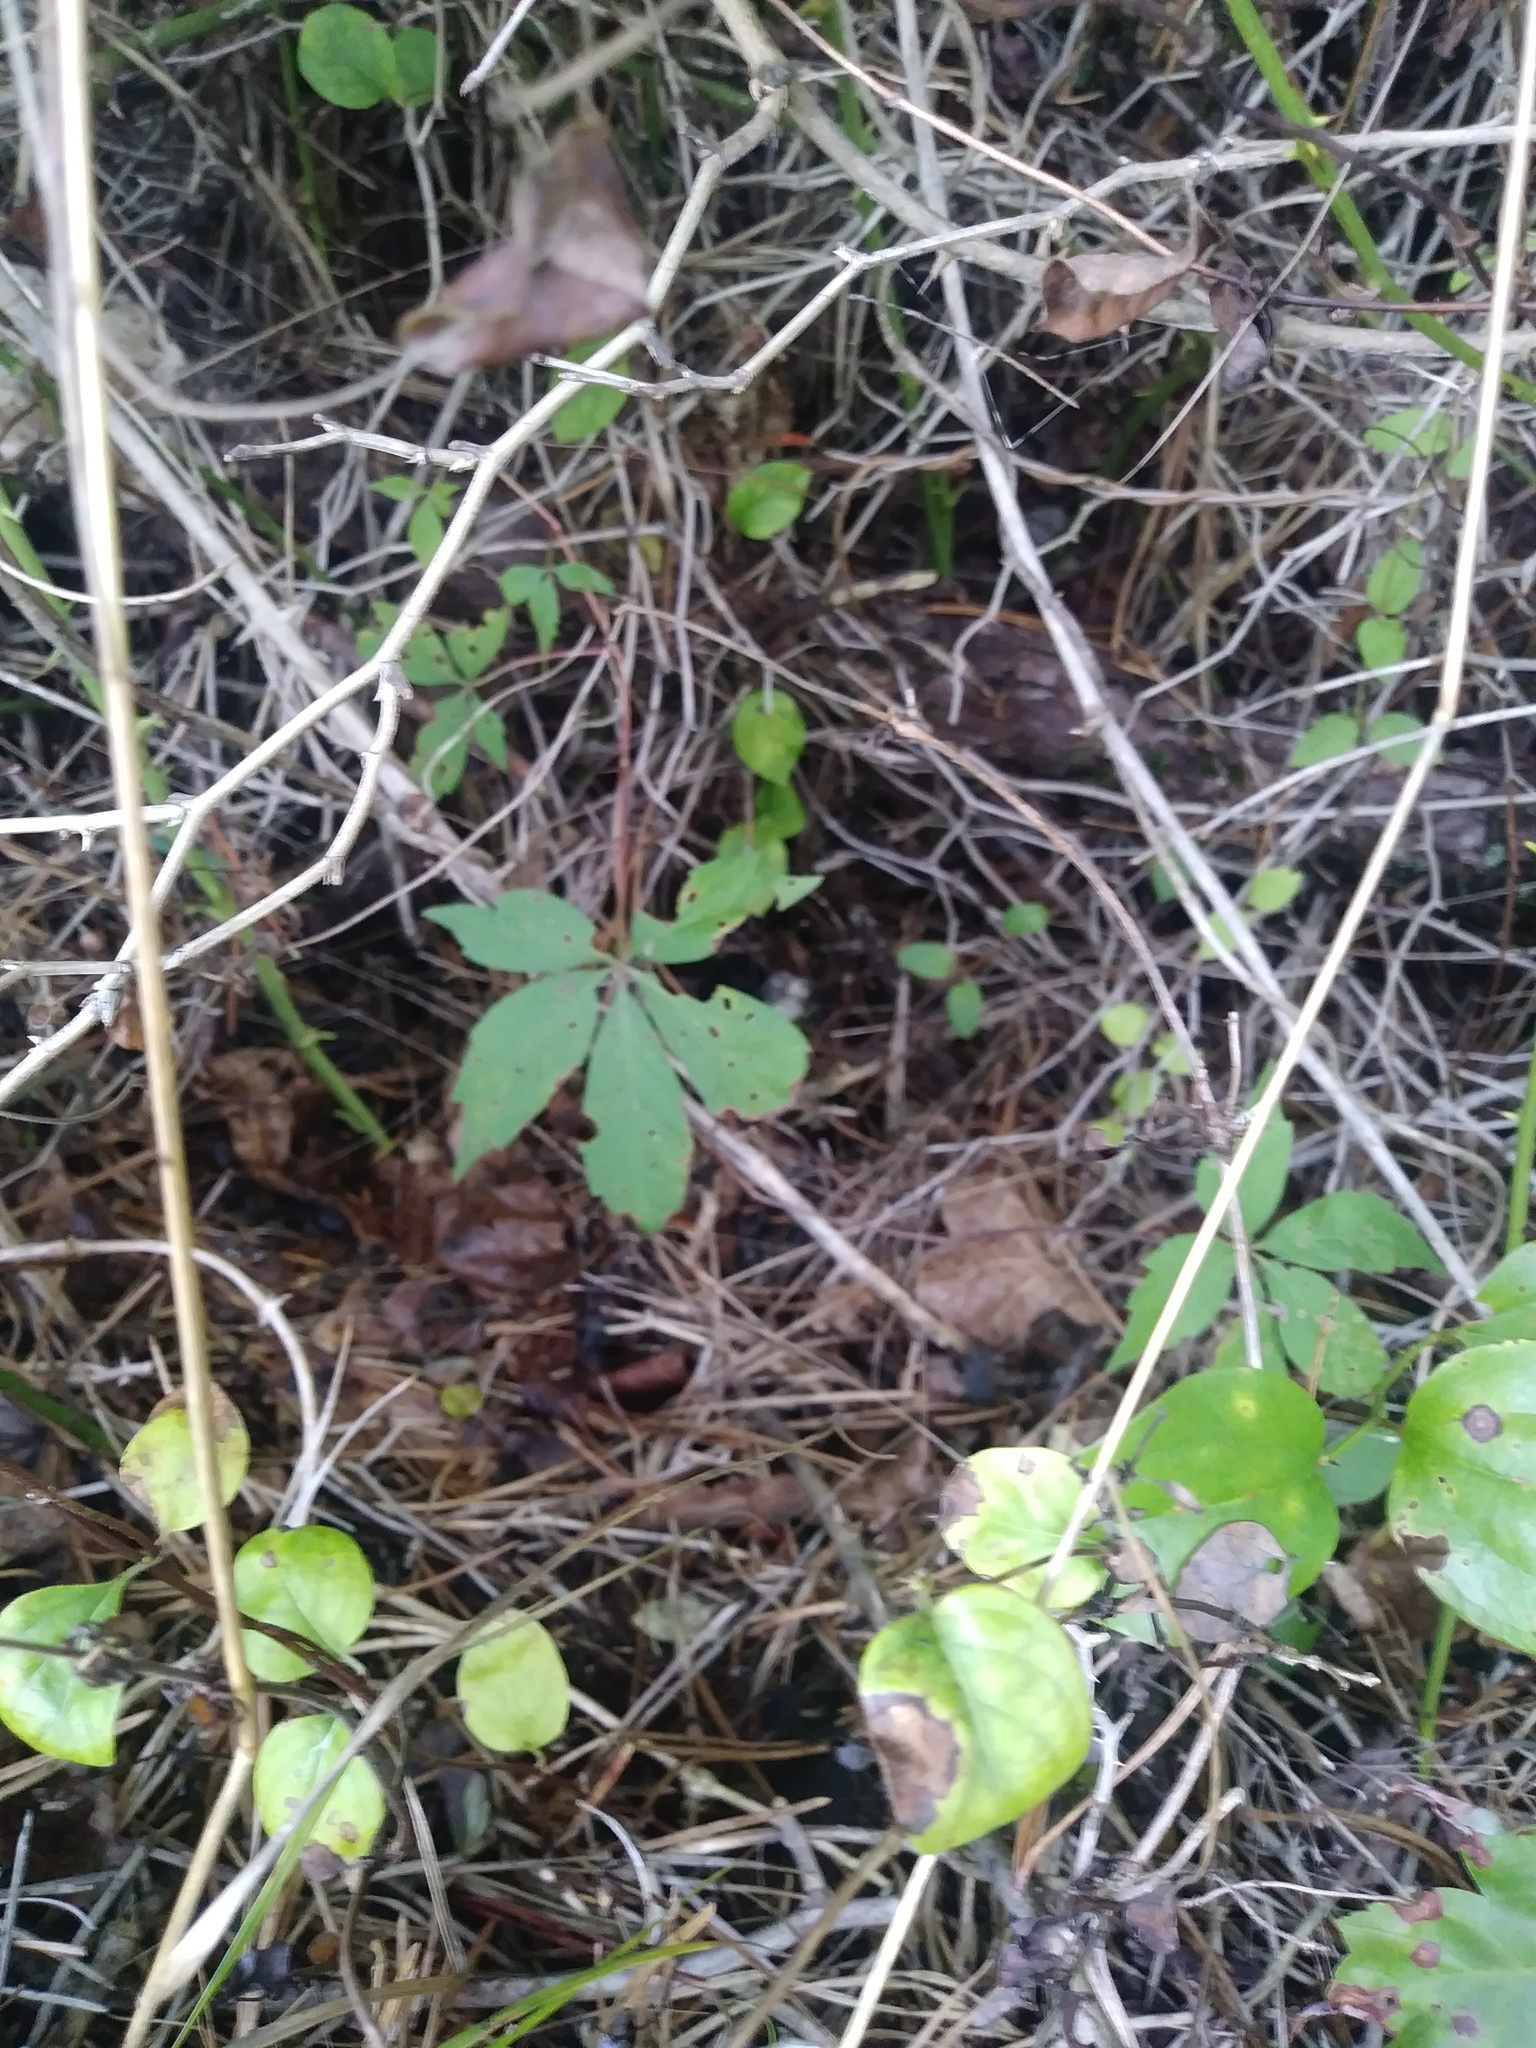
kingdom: Plantae
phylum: Tracheophyta
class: Magnoliopsida
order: Vitales
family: Vitaceae
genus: Parthenocissus
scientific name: Parthenocissus quinquefolia
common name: Virginia-creeper
